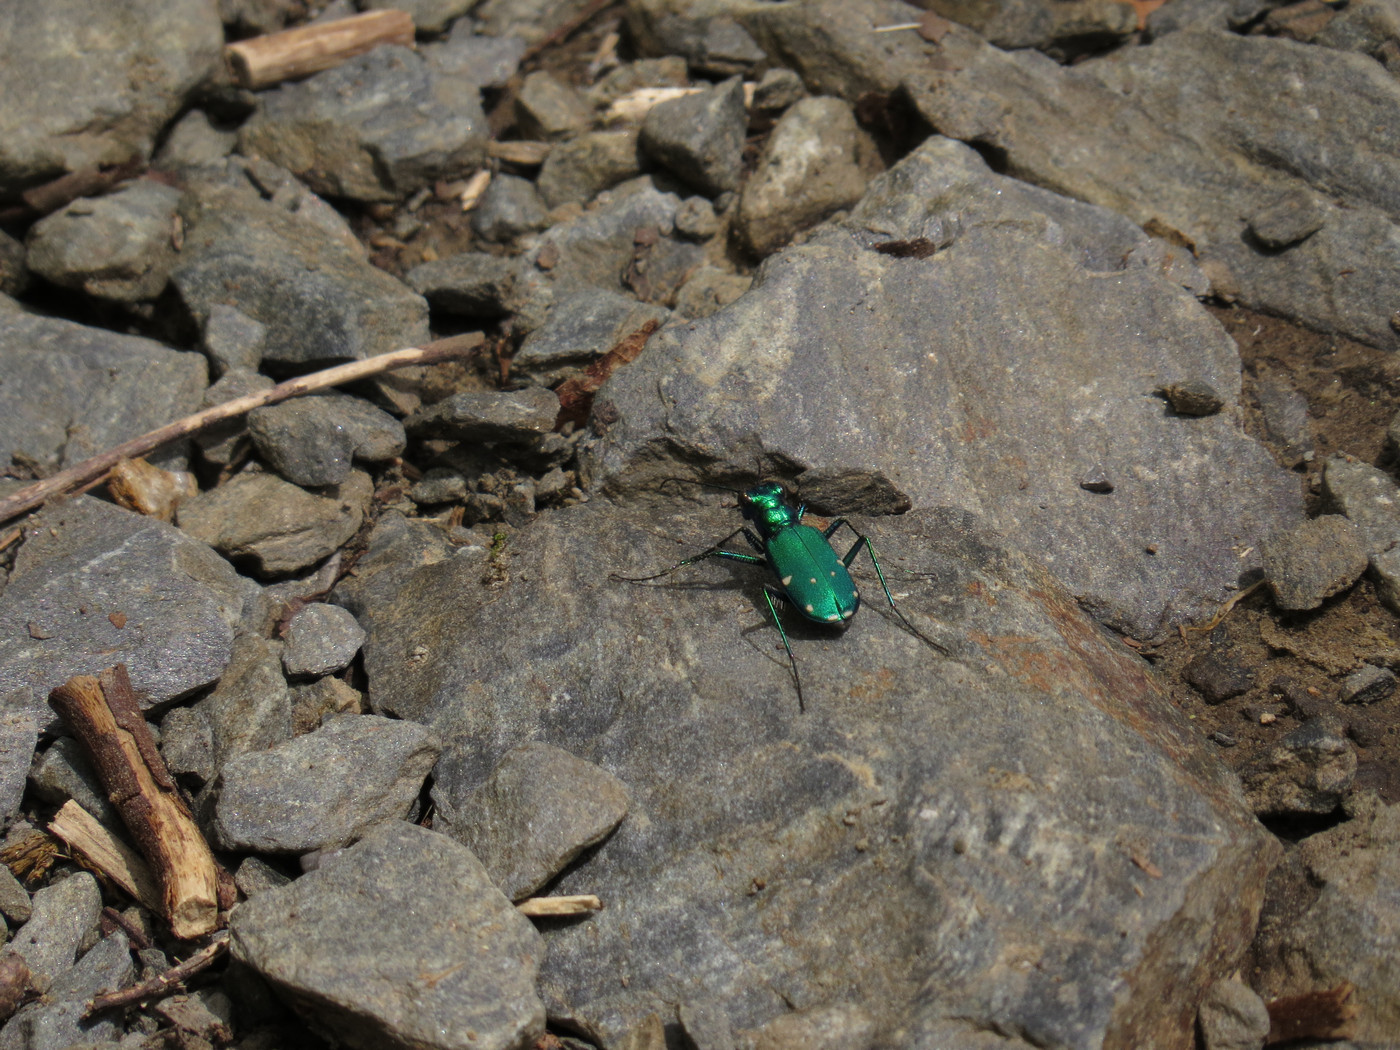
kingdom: Animalia
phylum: Arthropoda
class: Insecta
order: Coleoptera
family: Carabidae
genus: Cicindela
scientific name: Cicindela sexguttata
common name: Six-spotted tiger beetle
